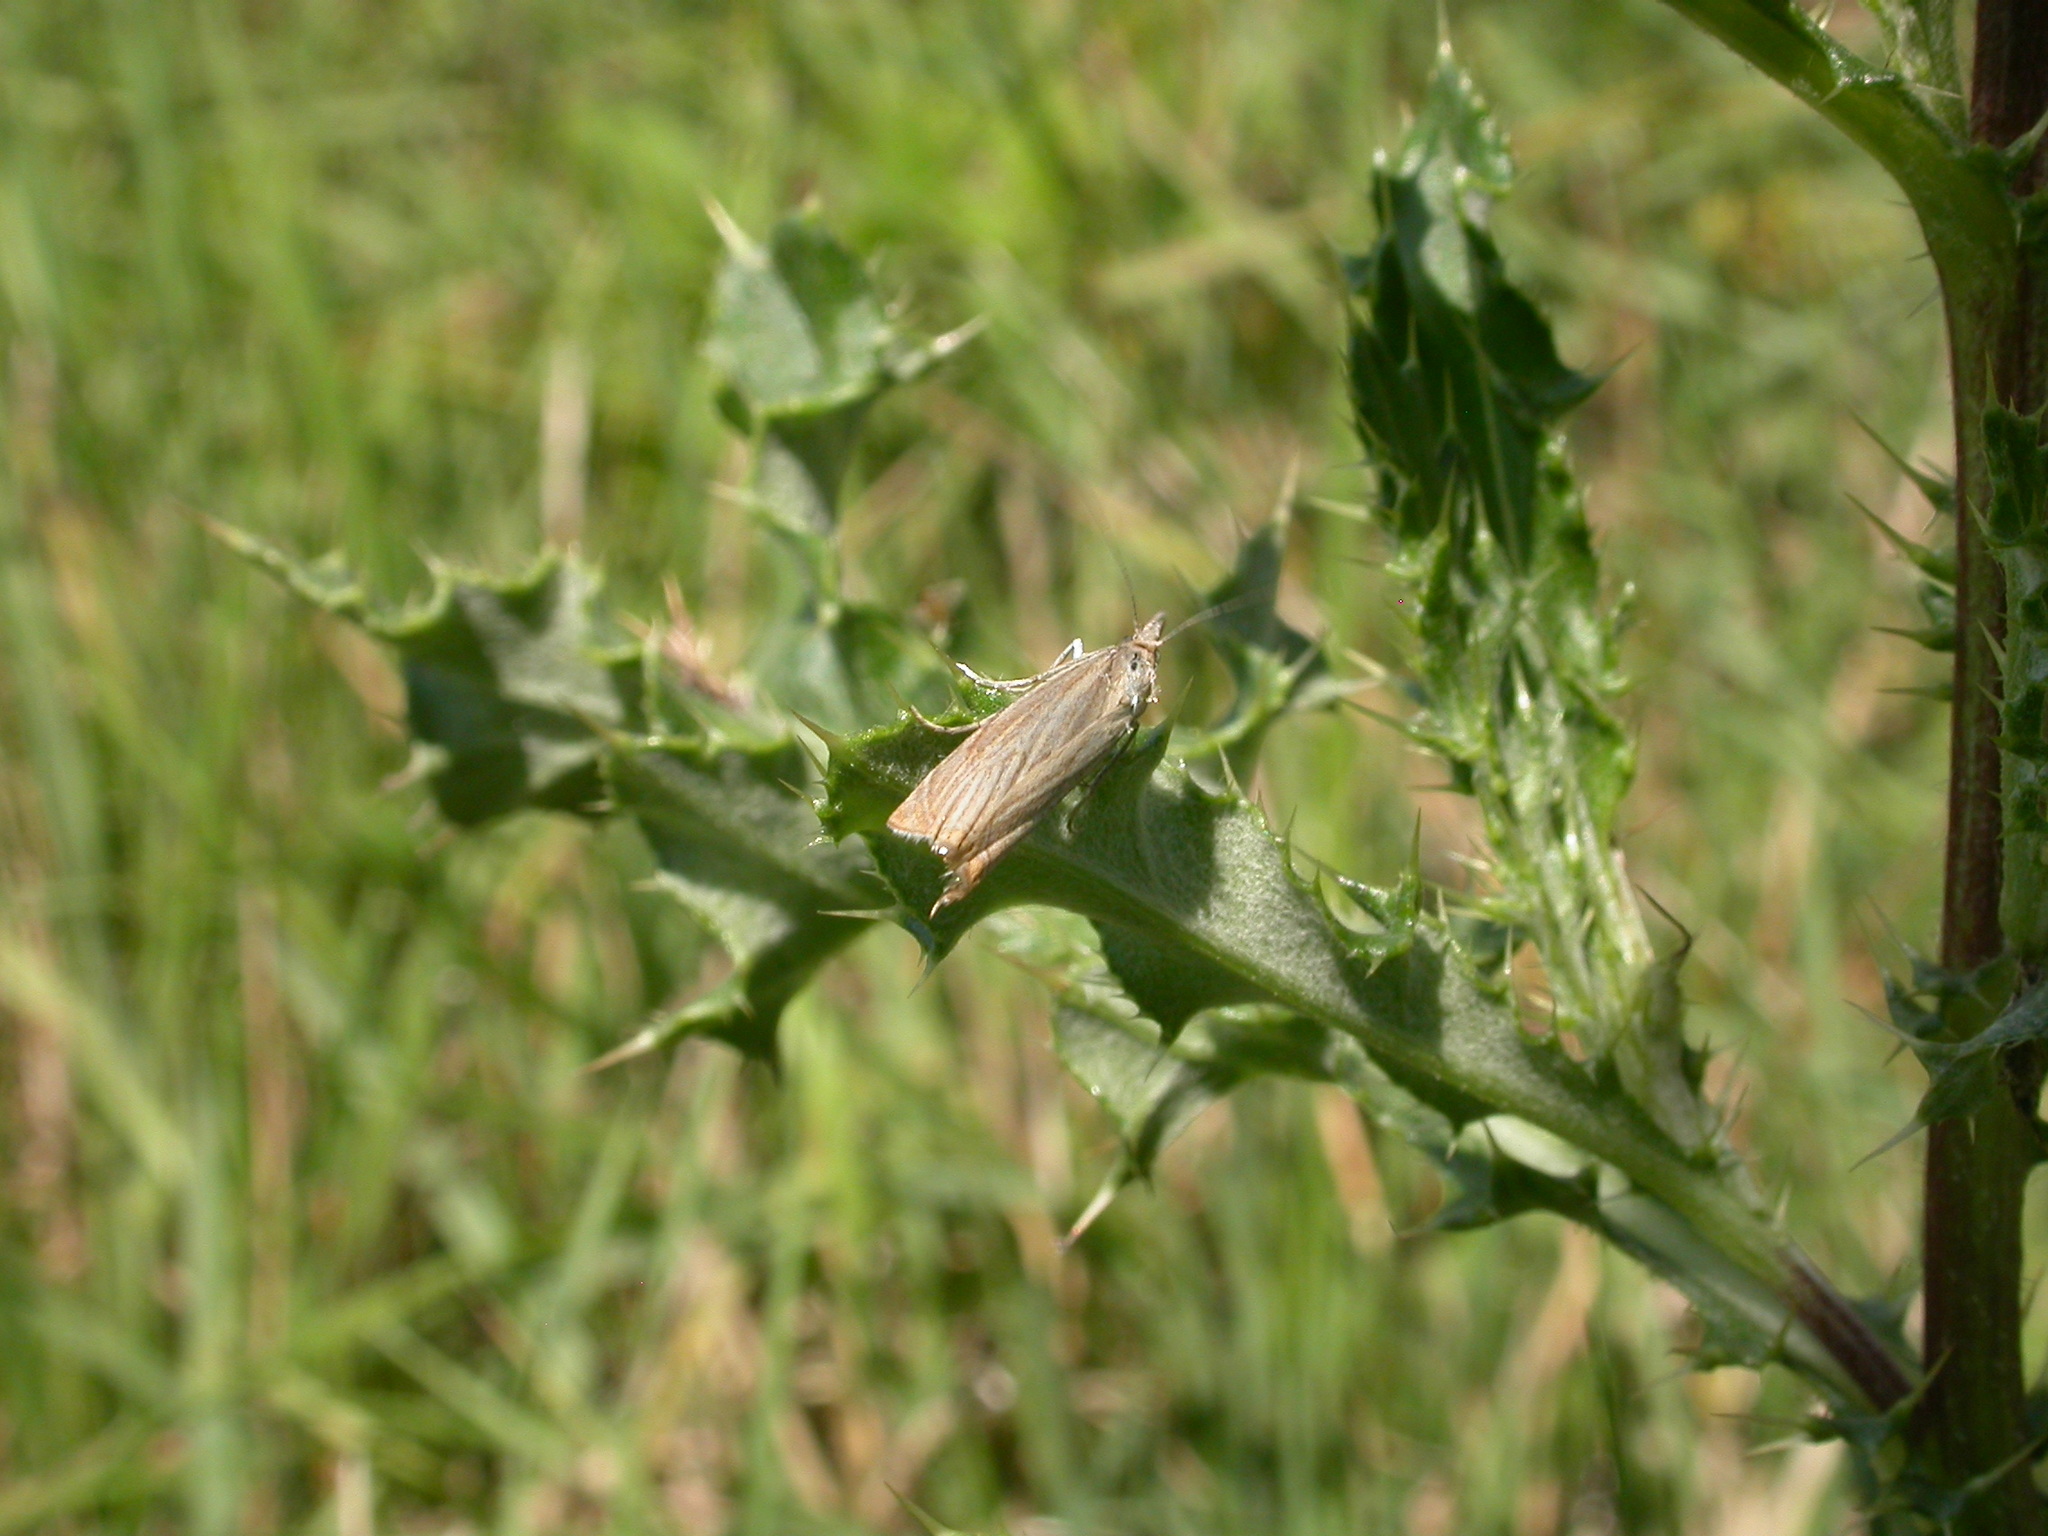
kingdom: Animalia
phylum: Arthropoda
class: Insecta
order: Lepidoptera
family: Crambidae
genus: Chrysoteuchia
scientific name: Chrysoteuchia culmella
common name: Garden grass-veneer
